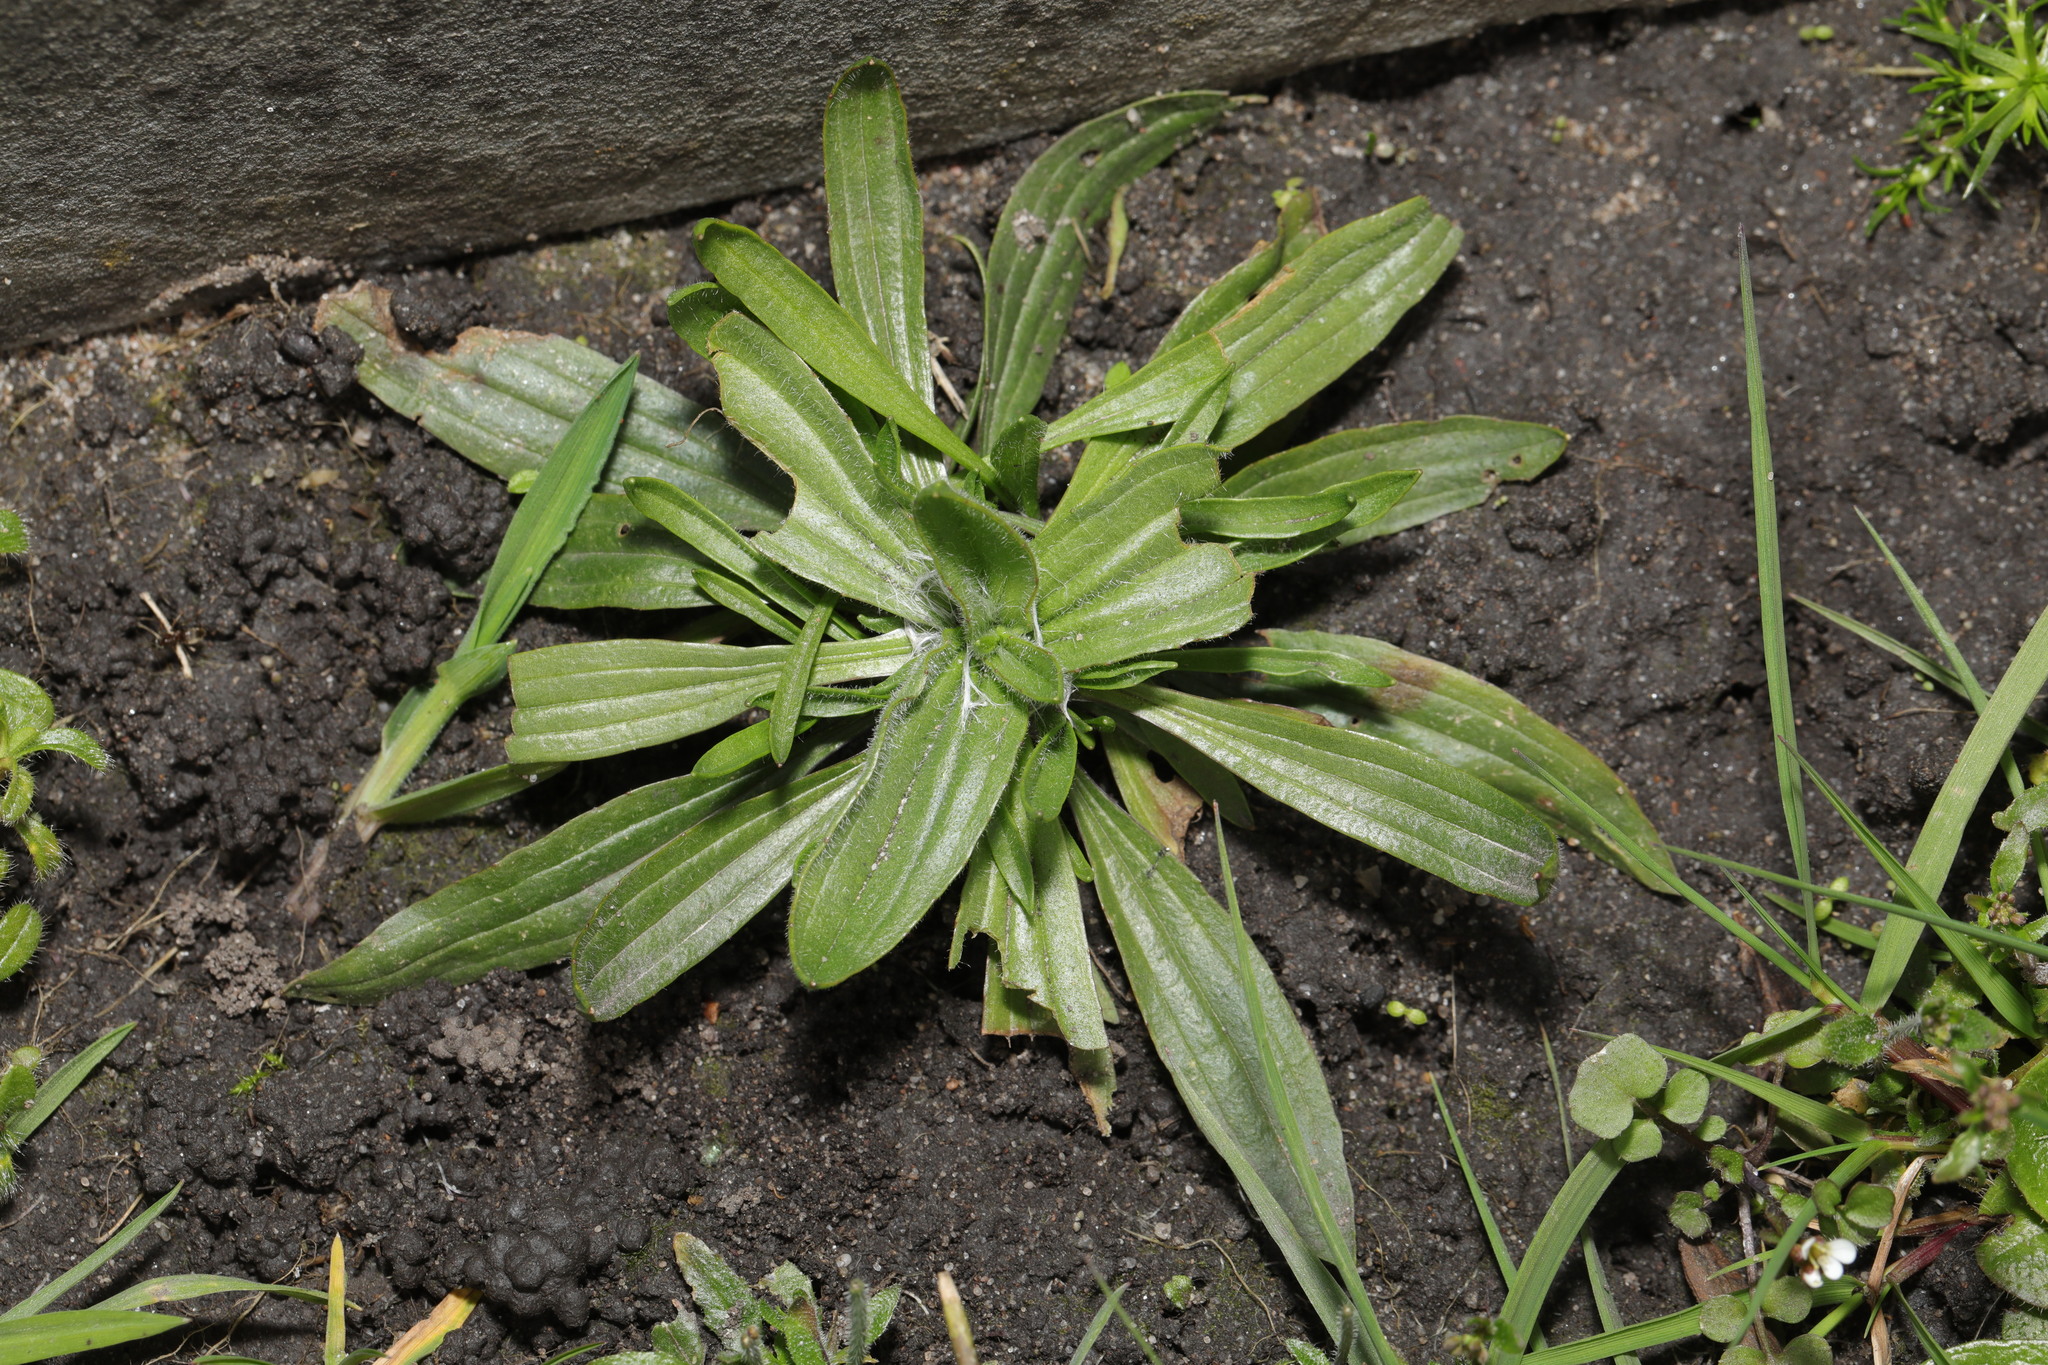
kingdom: Plantae
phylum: Tracheophyta
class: Magnoliopsida
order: Lamiales
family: Plantaginaceae
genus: Plantago
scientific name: Plantago lanceolata
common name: Ribwort plantain
